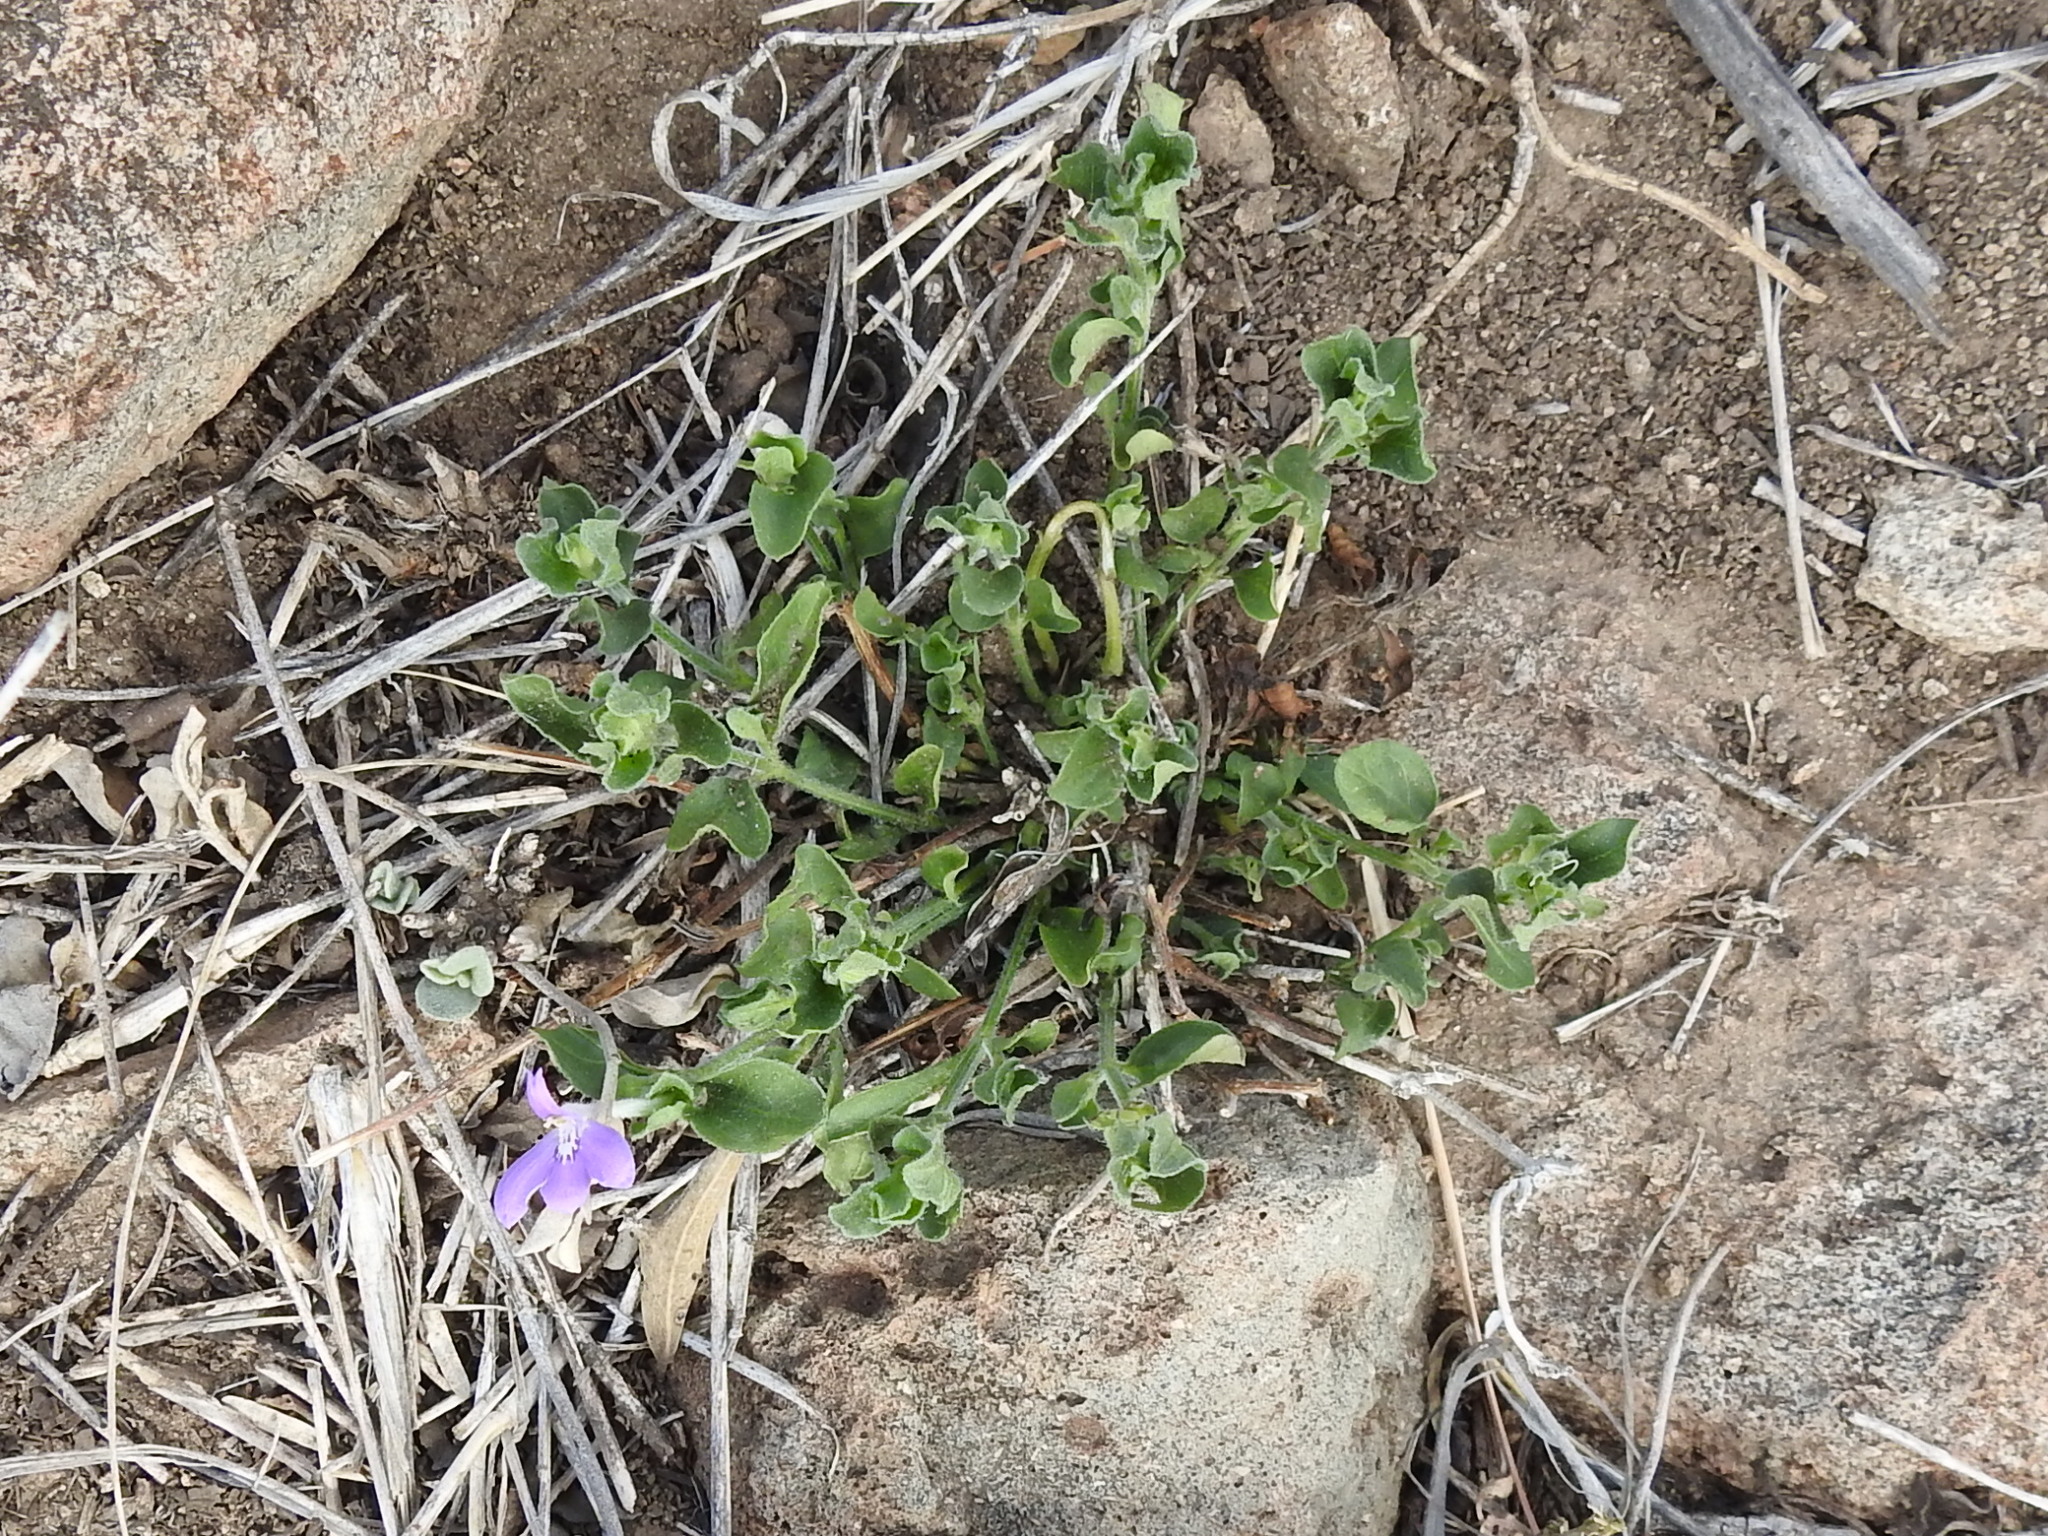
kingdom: Plantae
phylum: Tracheophyta
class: Magnoliopsida
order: Lamiales
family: Acanthaceae
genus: Justicia
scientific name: Justicia pilosella
